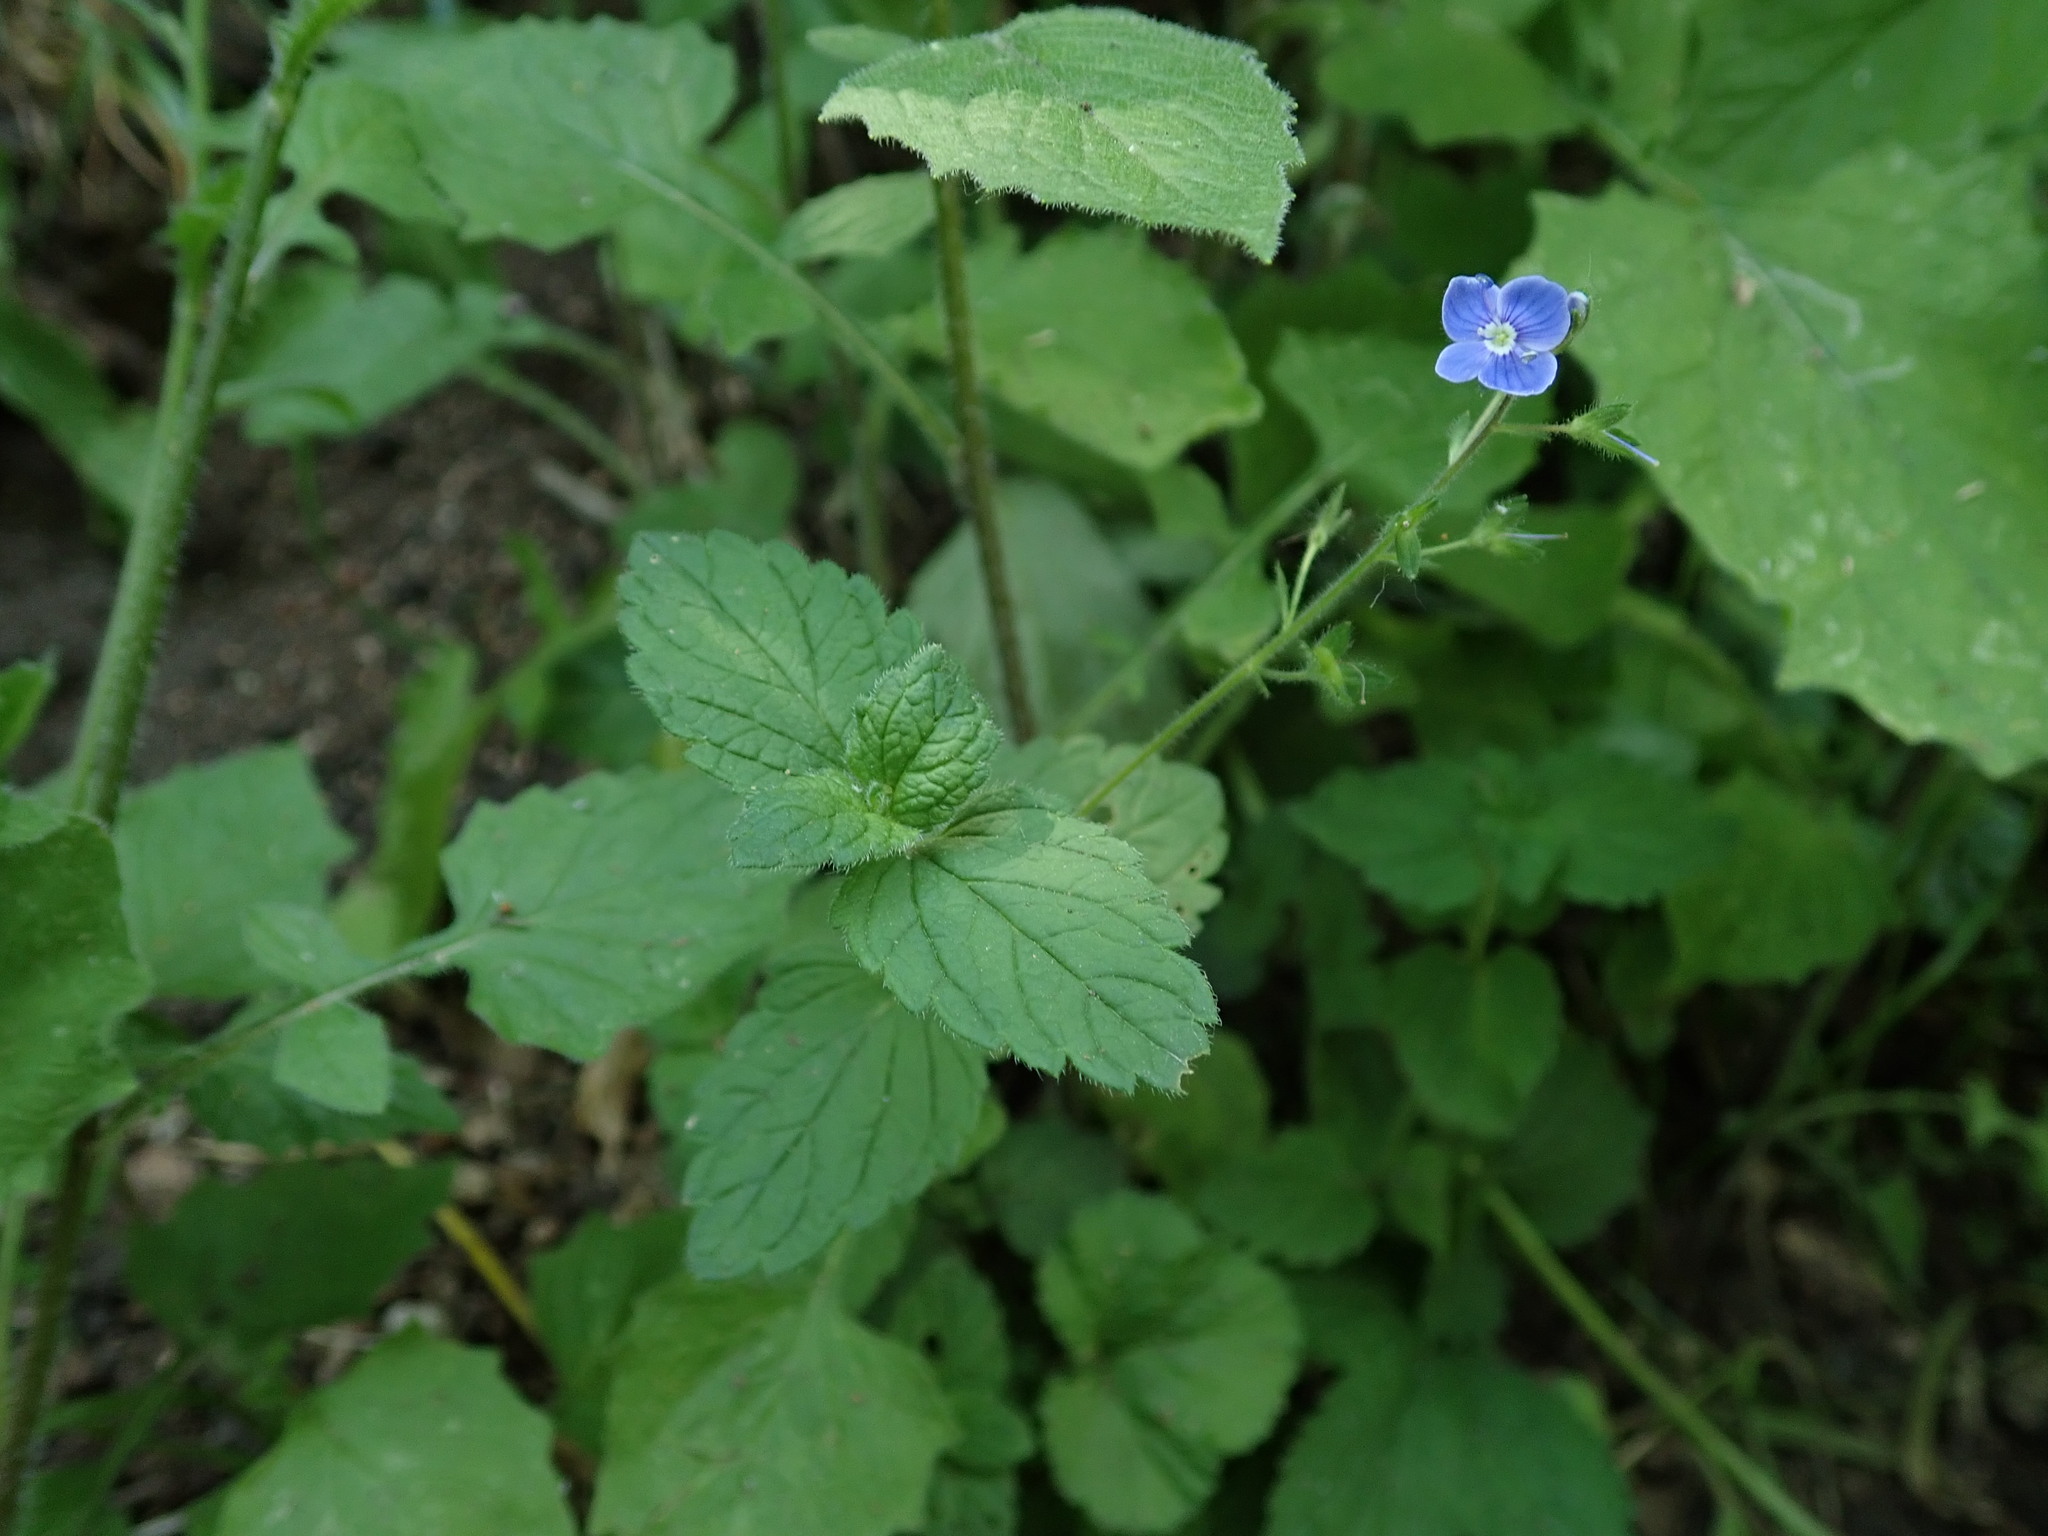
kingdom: Plantae
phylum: Tracheophyta
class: Magnoliopsida
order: Lamiales
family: Plantaginaceae
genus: Veronica
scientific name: Veronica chamaedrys
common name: Germander speedwell
